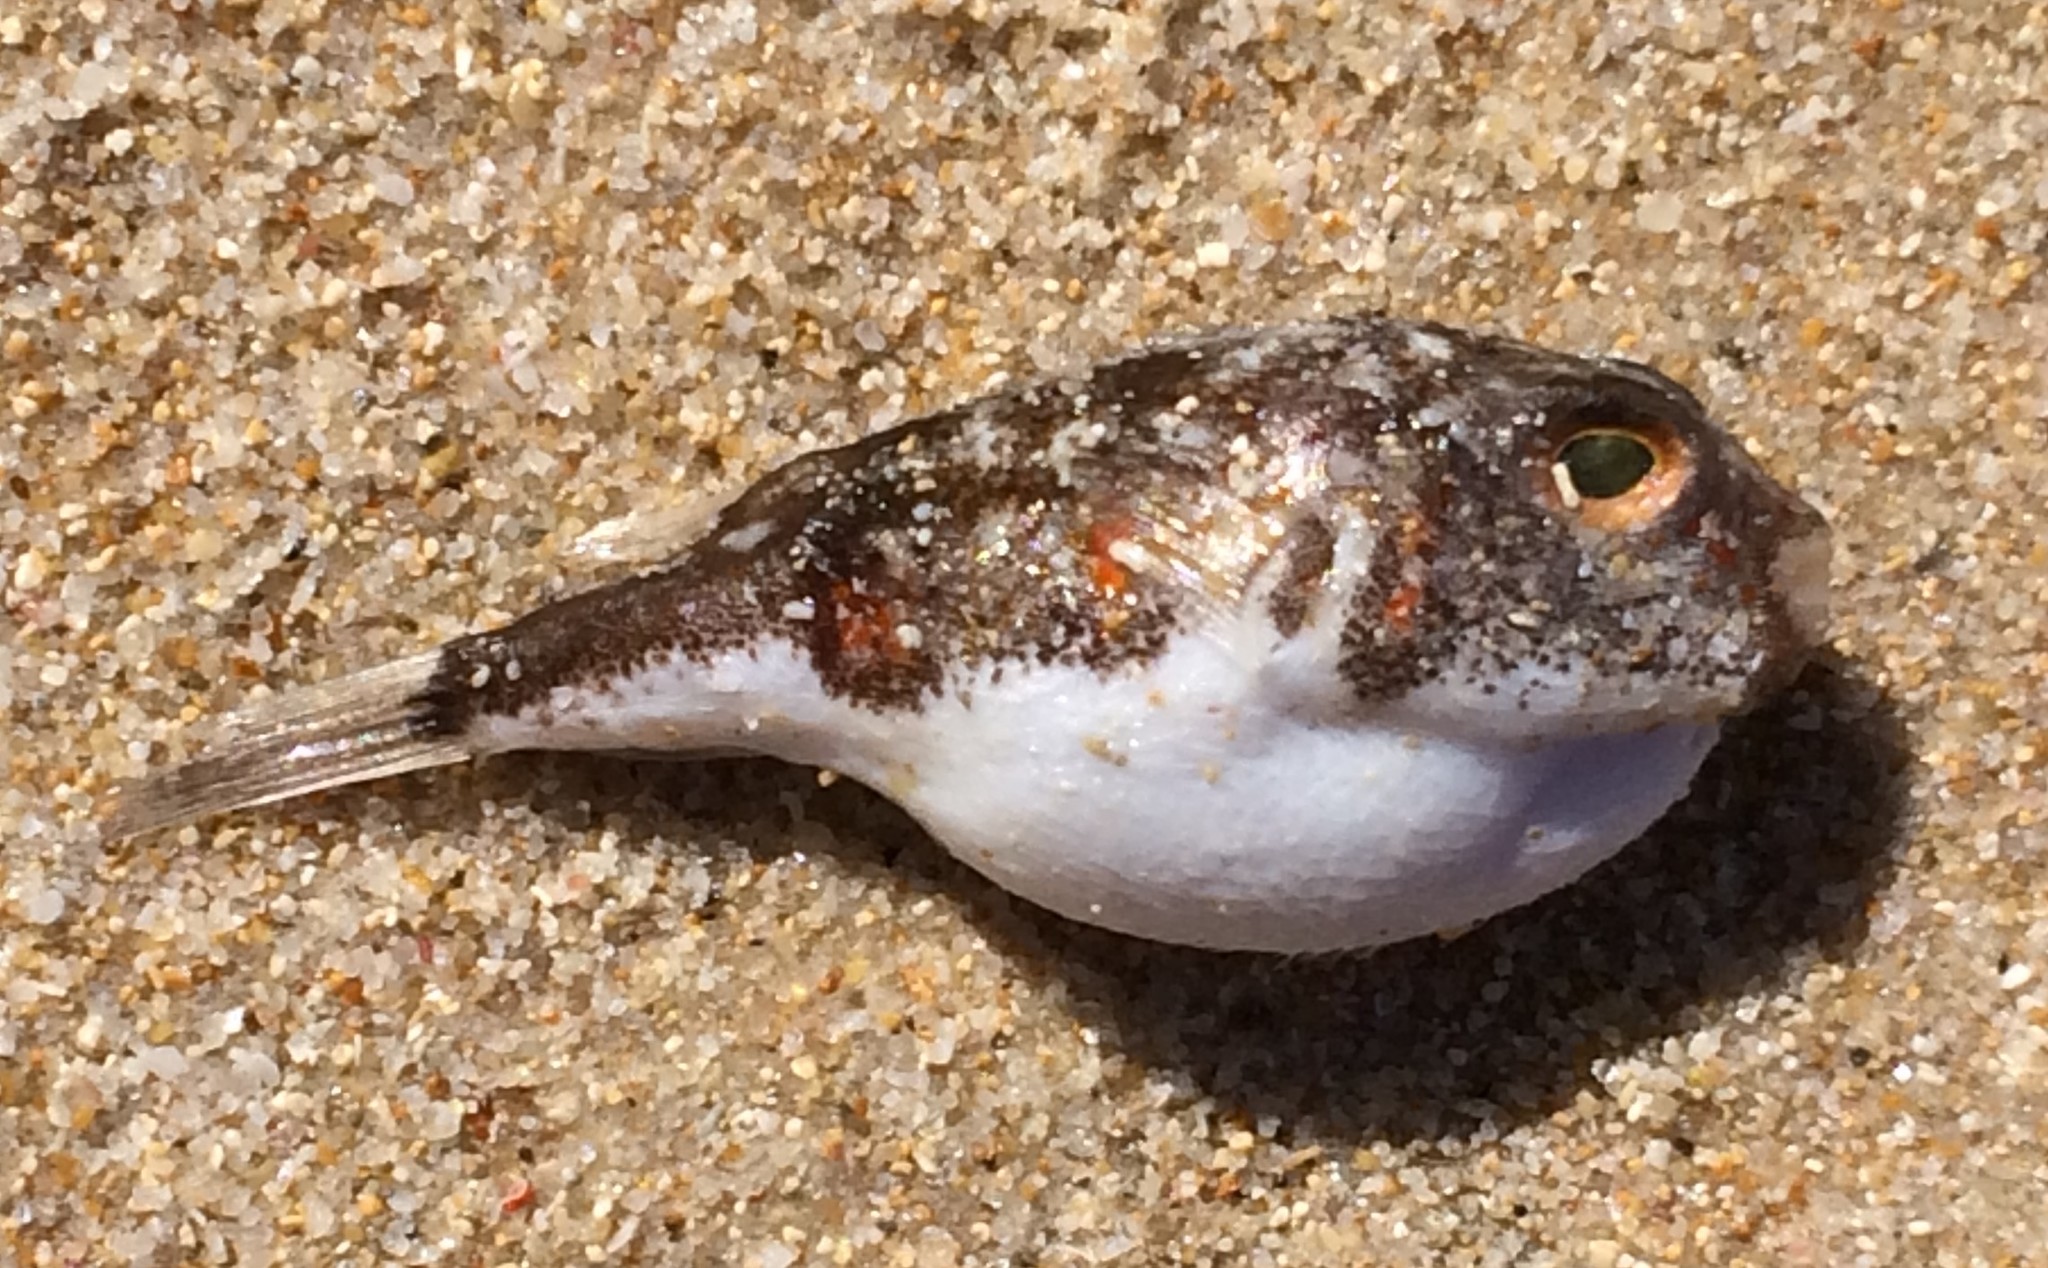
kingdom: Animalia
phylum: Chordata
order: Tetraodontiformes
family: Tetraodontidae
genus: Polyspina
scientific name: Polyspina piosae
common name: Orange-barred pufferfish
